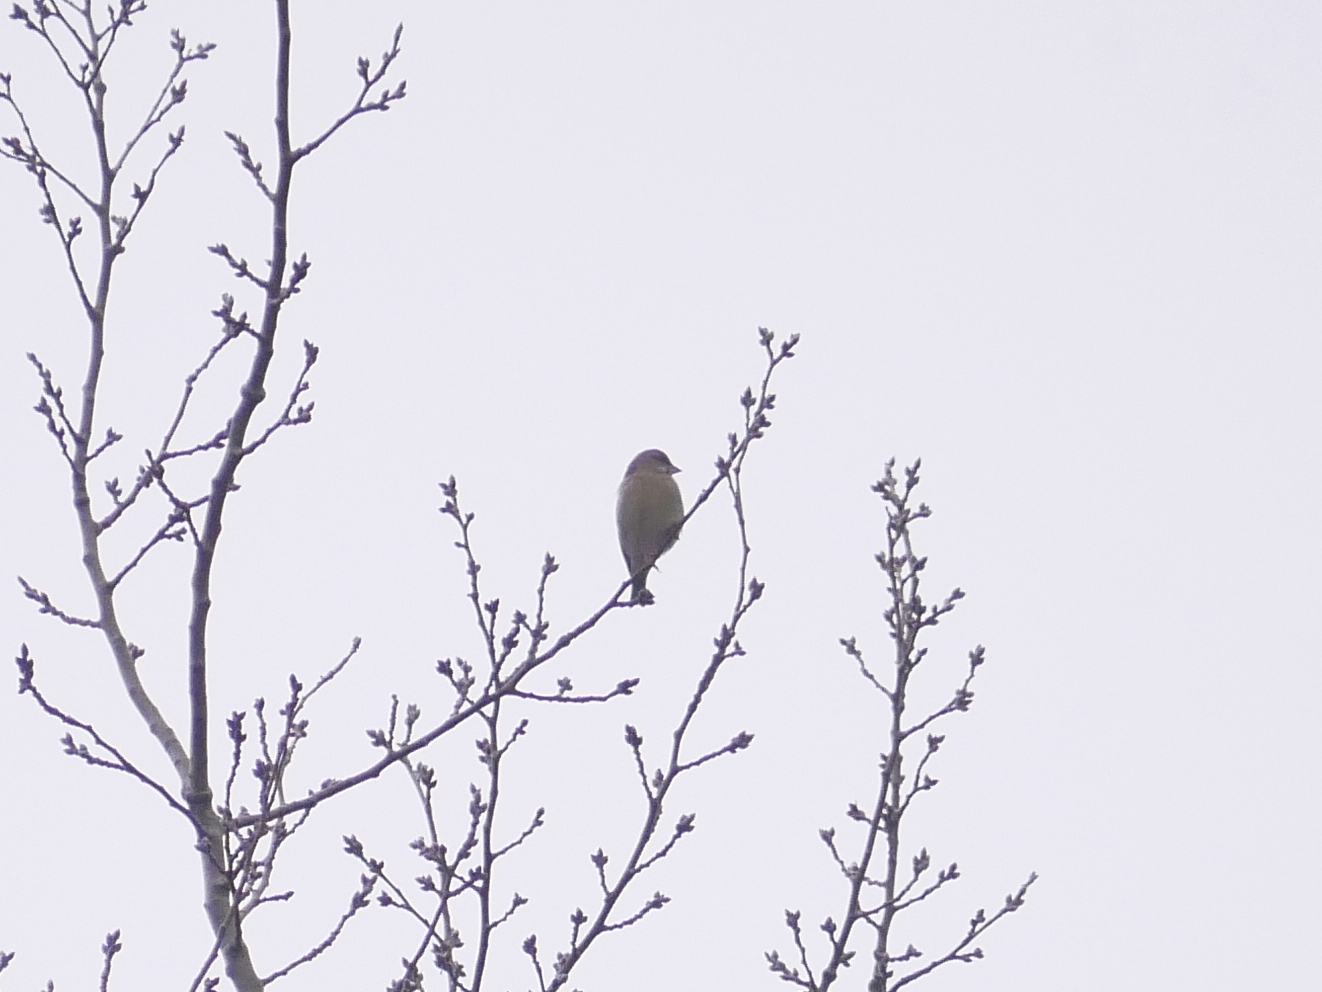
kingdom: Plantae
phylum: Tracheophyta
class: Liliopsida
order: Poales
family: Poaceae
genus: Chloris
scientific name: Chloris chloris
